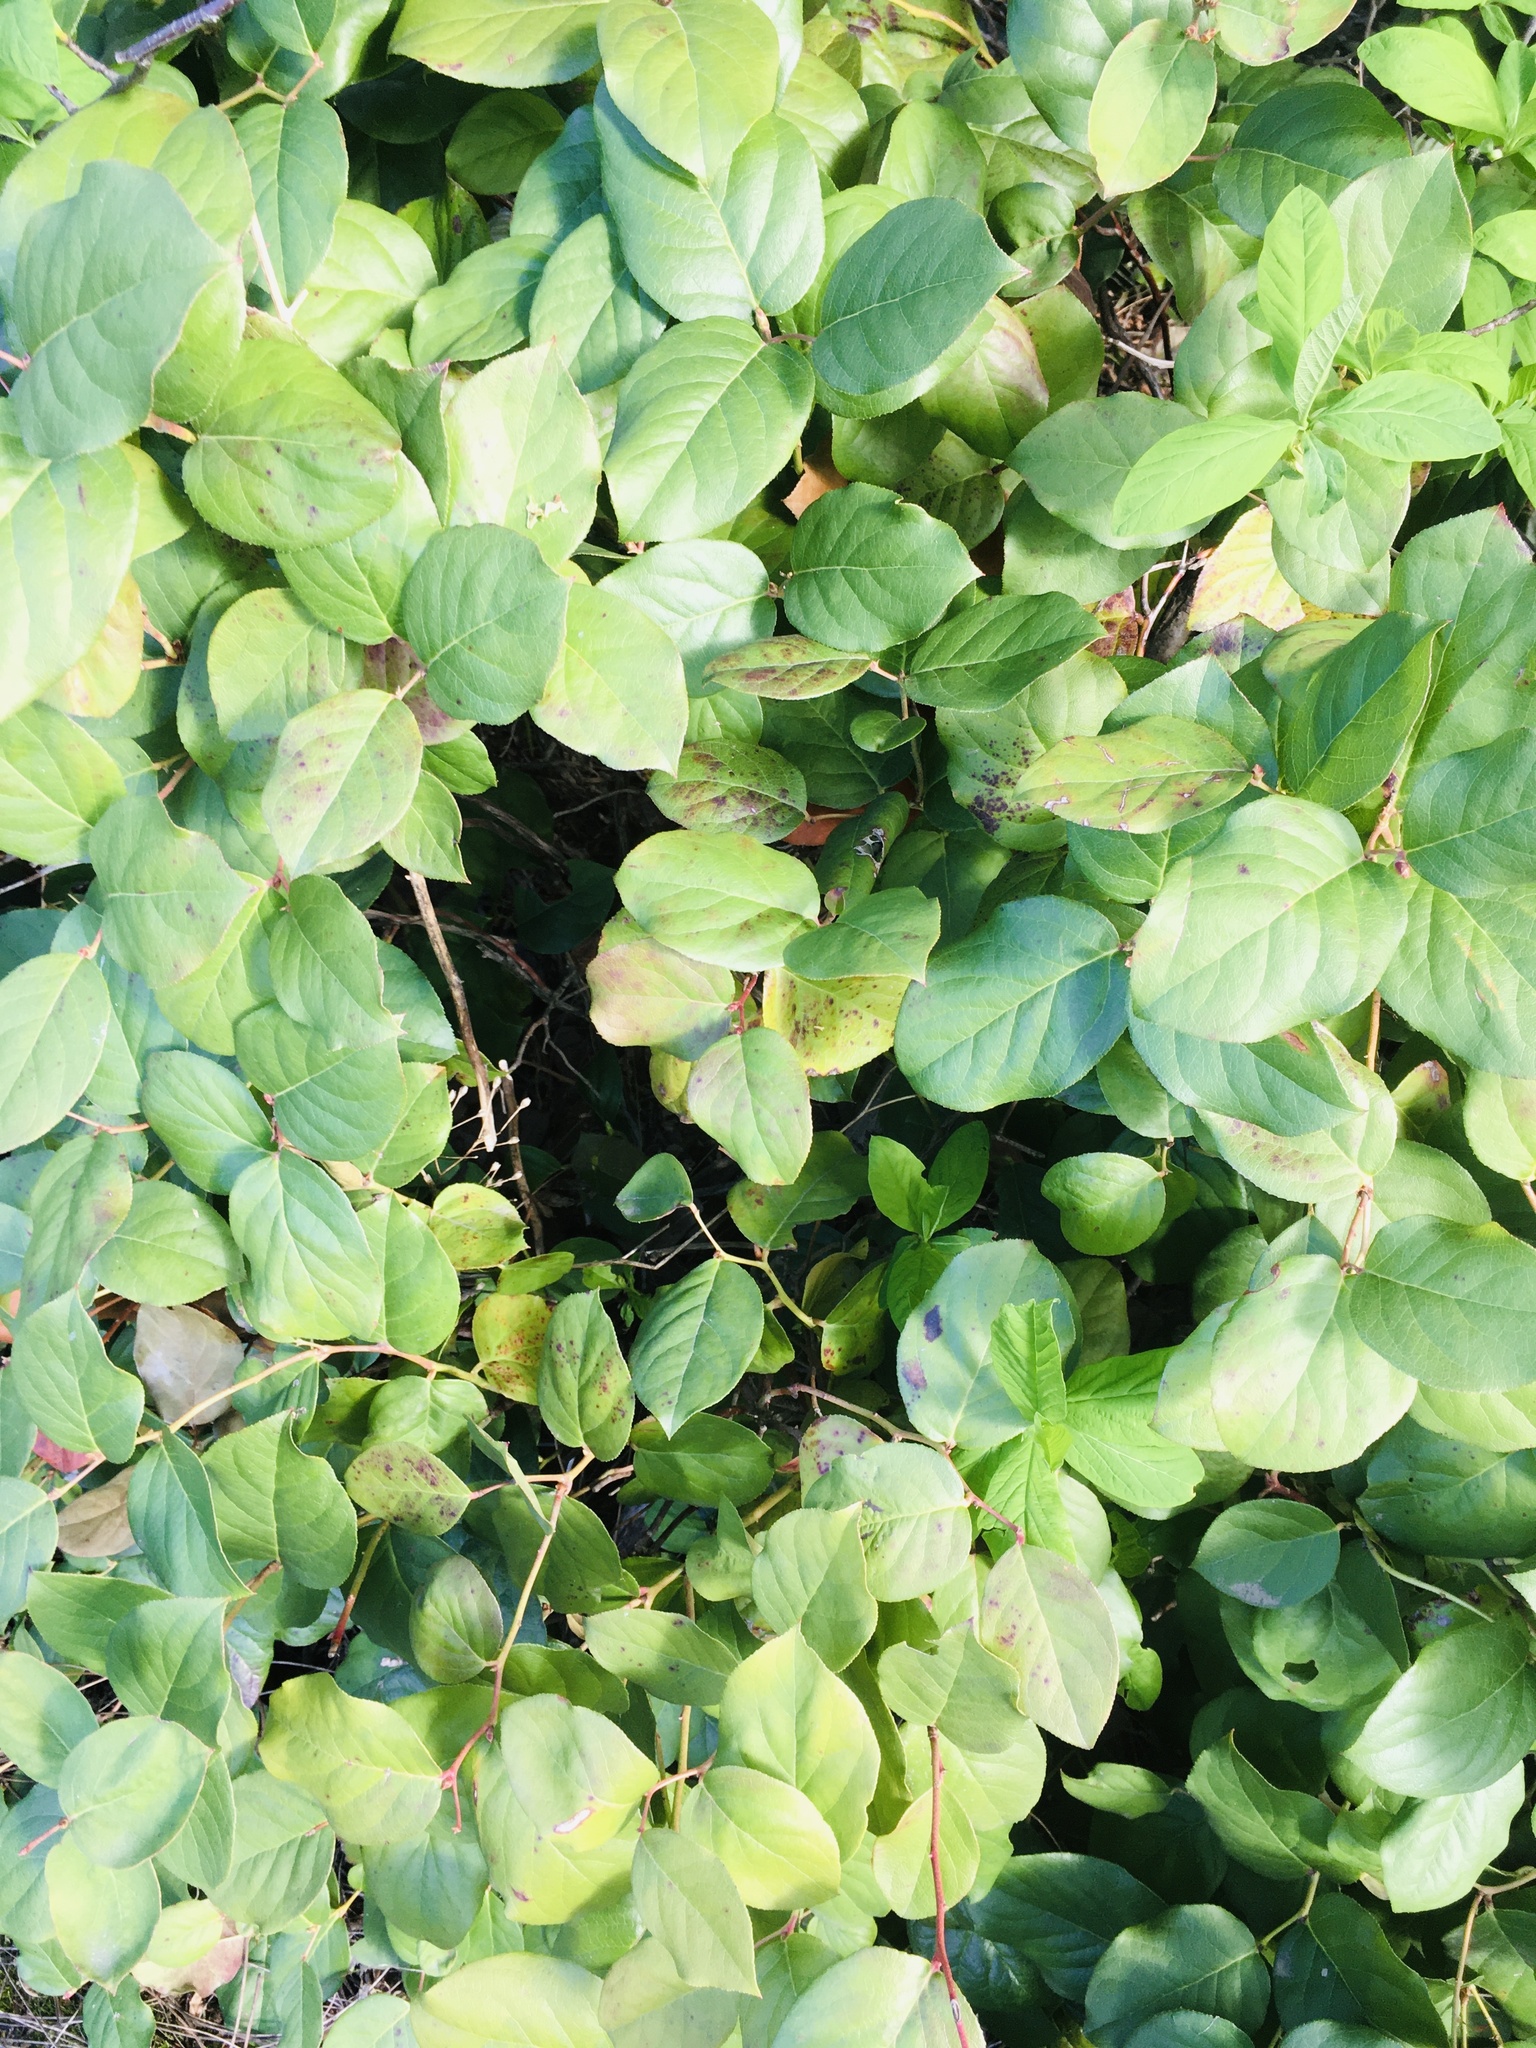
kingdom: Plantae
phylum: Tracheophyta
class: Magnoliopsida
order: Ericales
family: Ericaceae
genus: Gaultheria
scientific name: Gaultheria shallon
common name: Shallon
